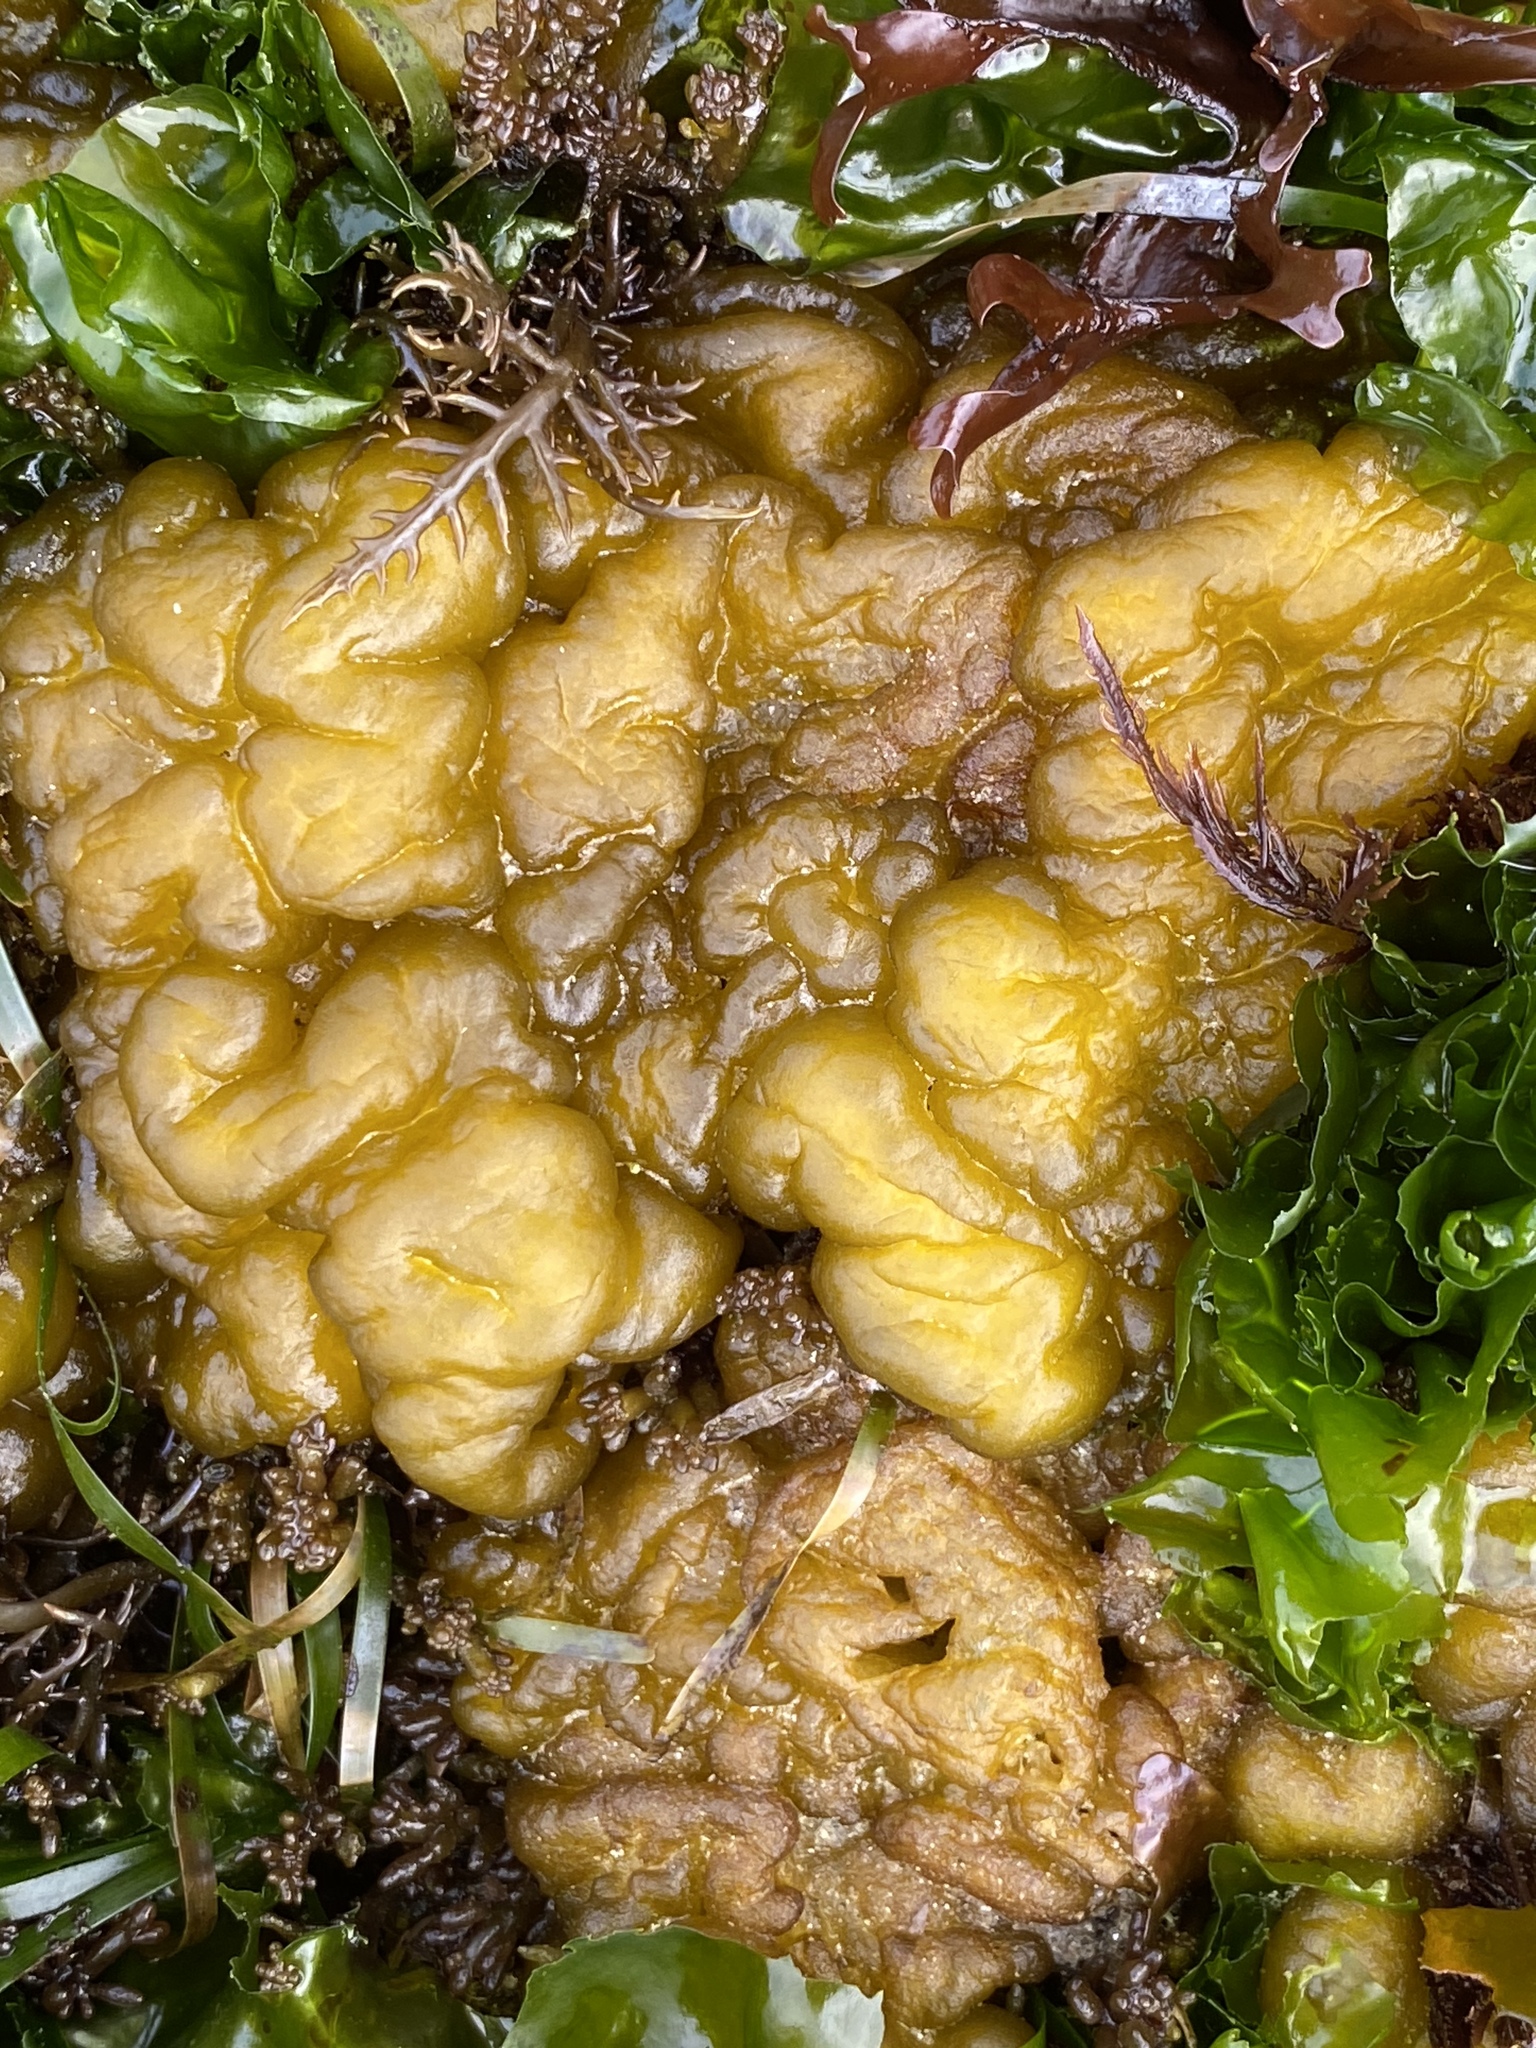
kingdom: Chromista
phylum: Ochrophyta
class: Phaeophyceae
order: Ectocarpales
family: Chordariaceae
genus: Leathesia
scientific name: Leathesia marina
